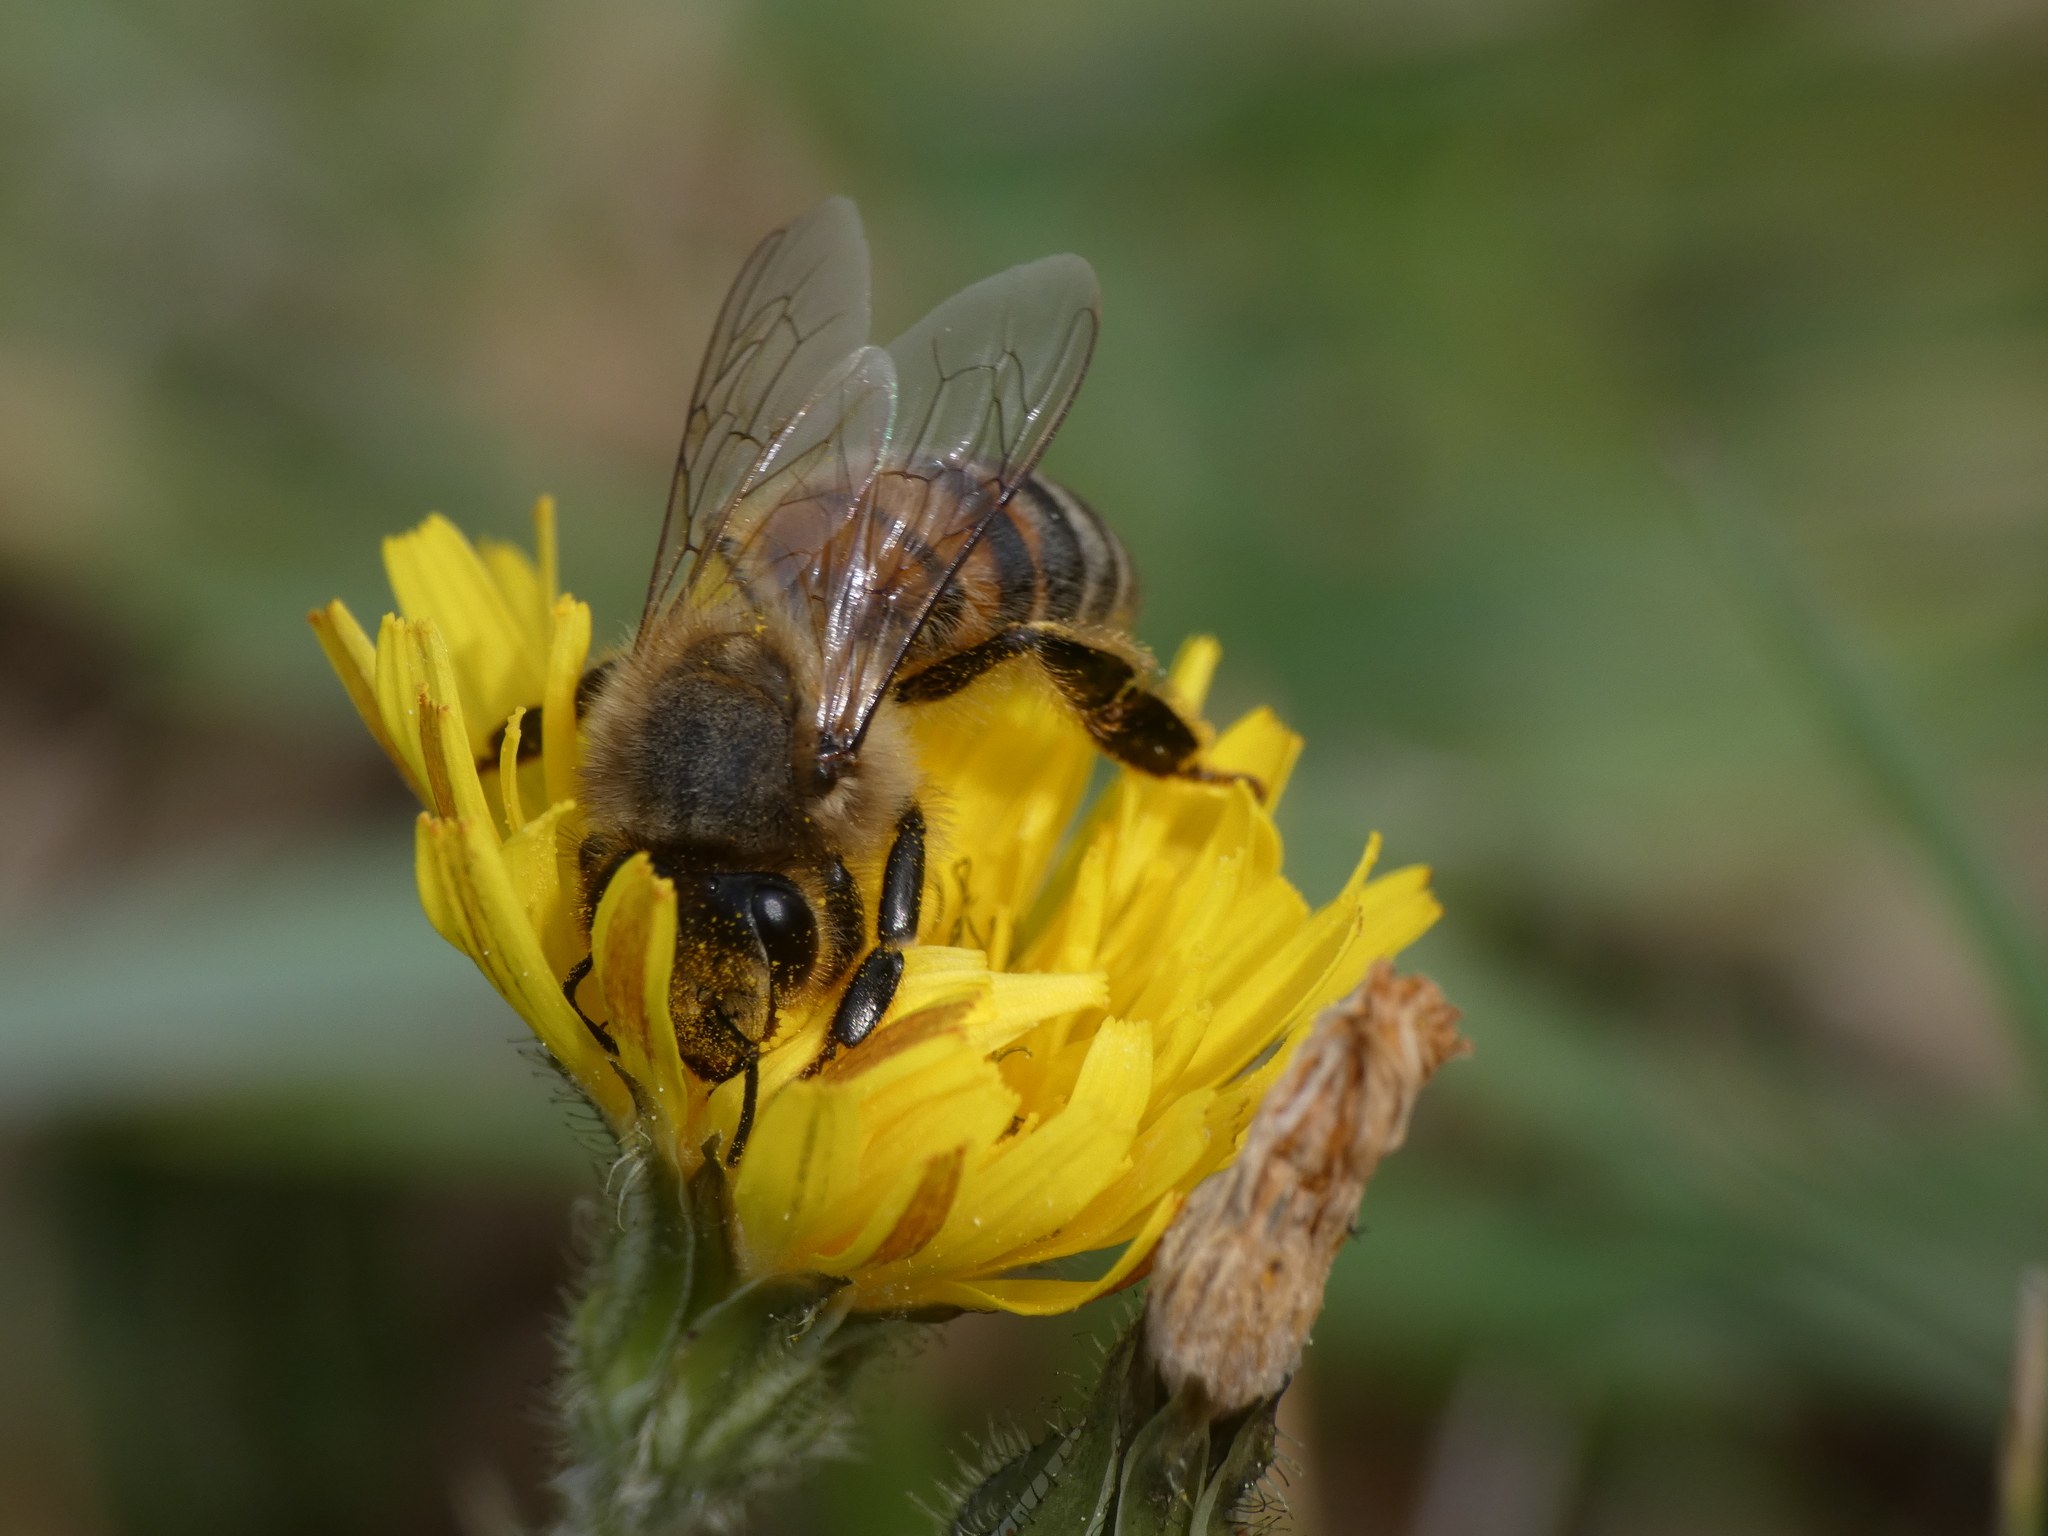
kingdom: Animalia
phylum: Arthropoda
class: Insecta
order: Hymenoptera
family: Apidae
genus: Apis
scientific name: Apis mellifera
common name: Honey bee
